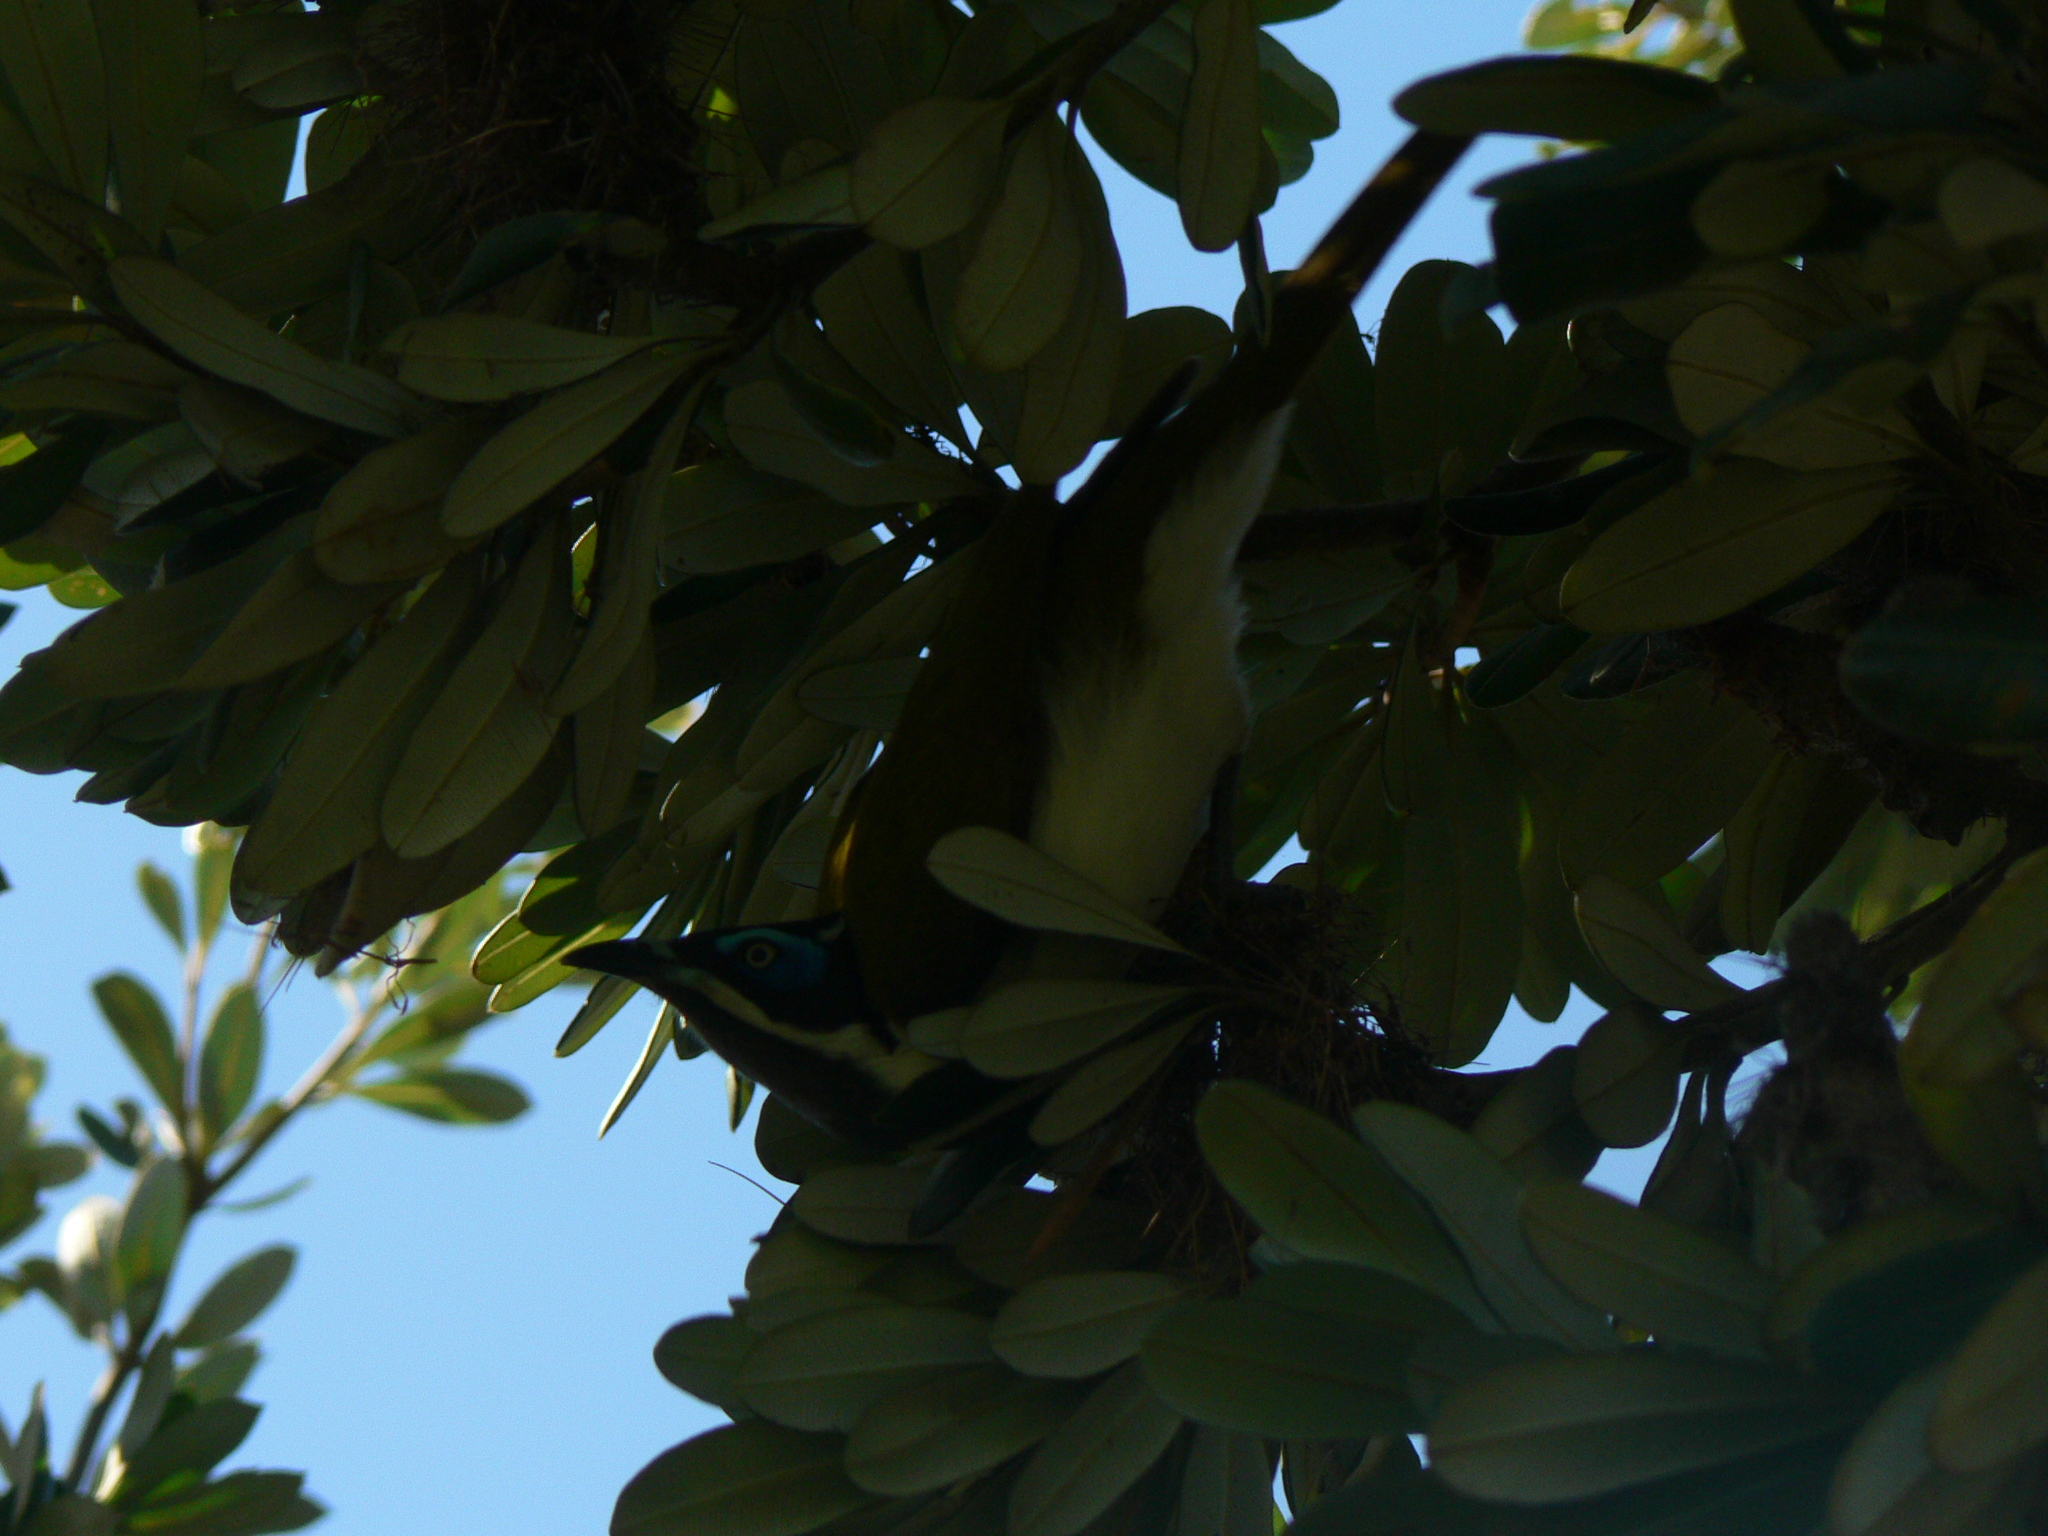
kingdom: Animalia
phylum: Chordata
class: Aves
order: Passeriformes
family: Meliphagidae
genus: Entomyzon
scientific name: Entomyzon cyanotis
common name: Blue-faced honeyeater
